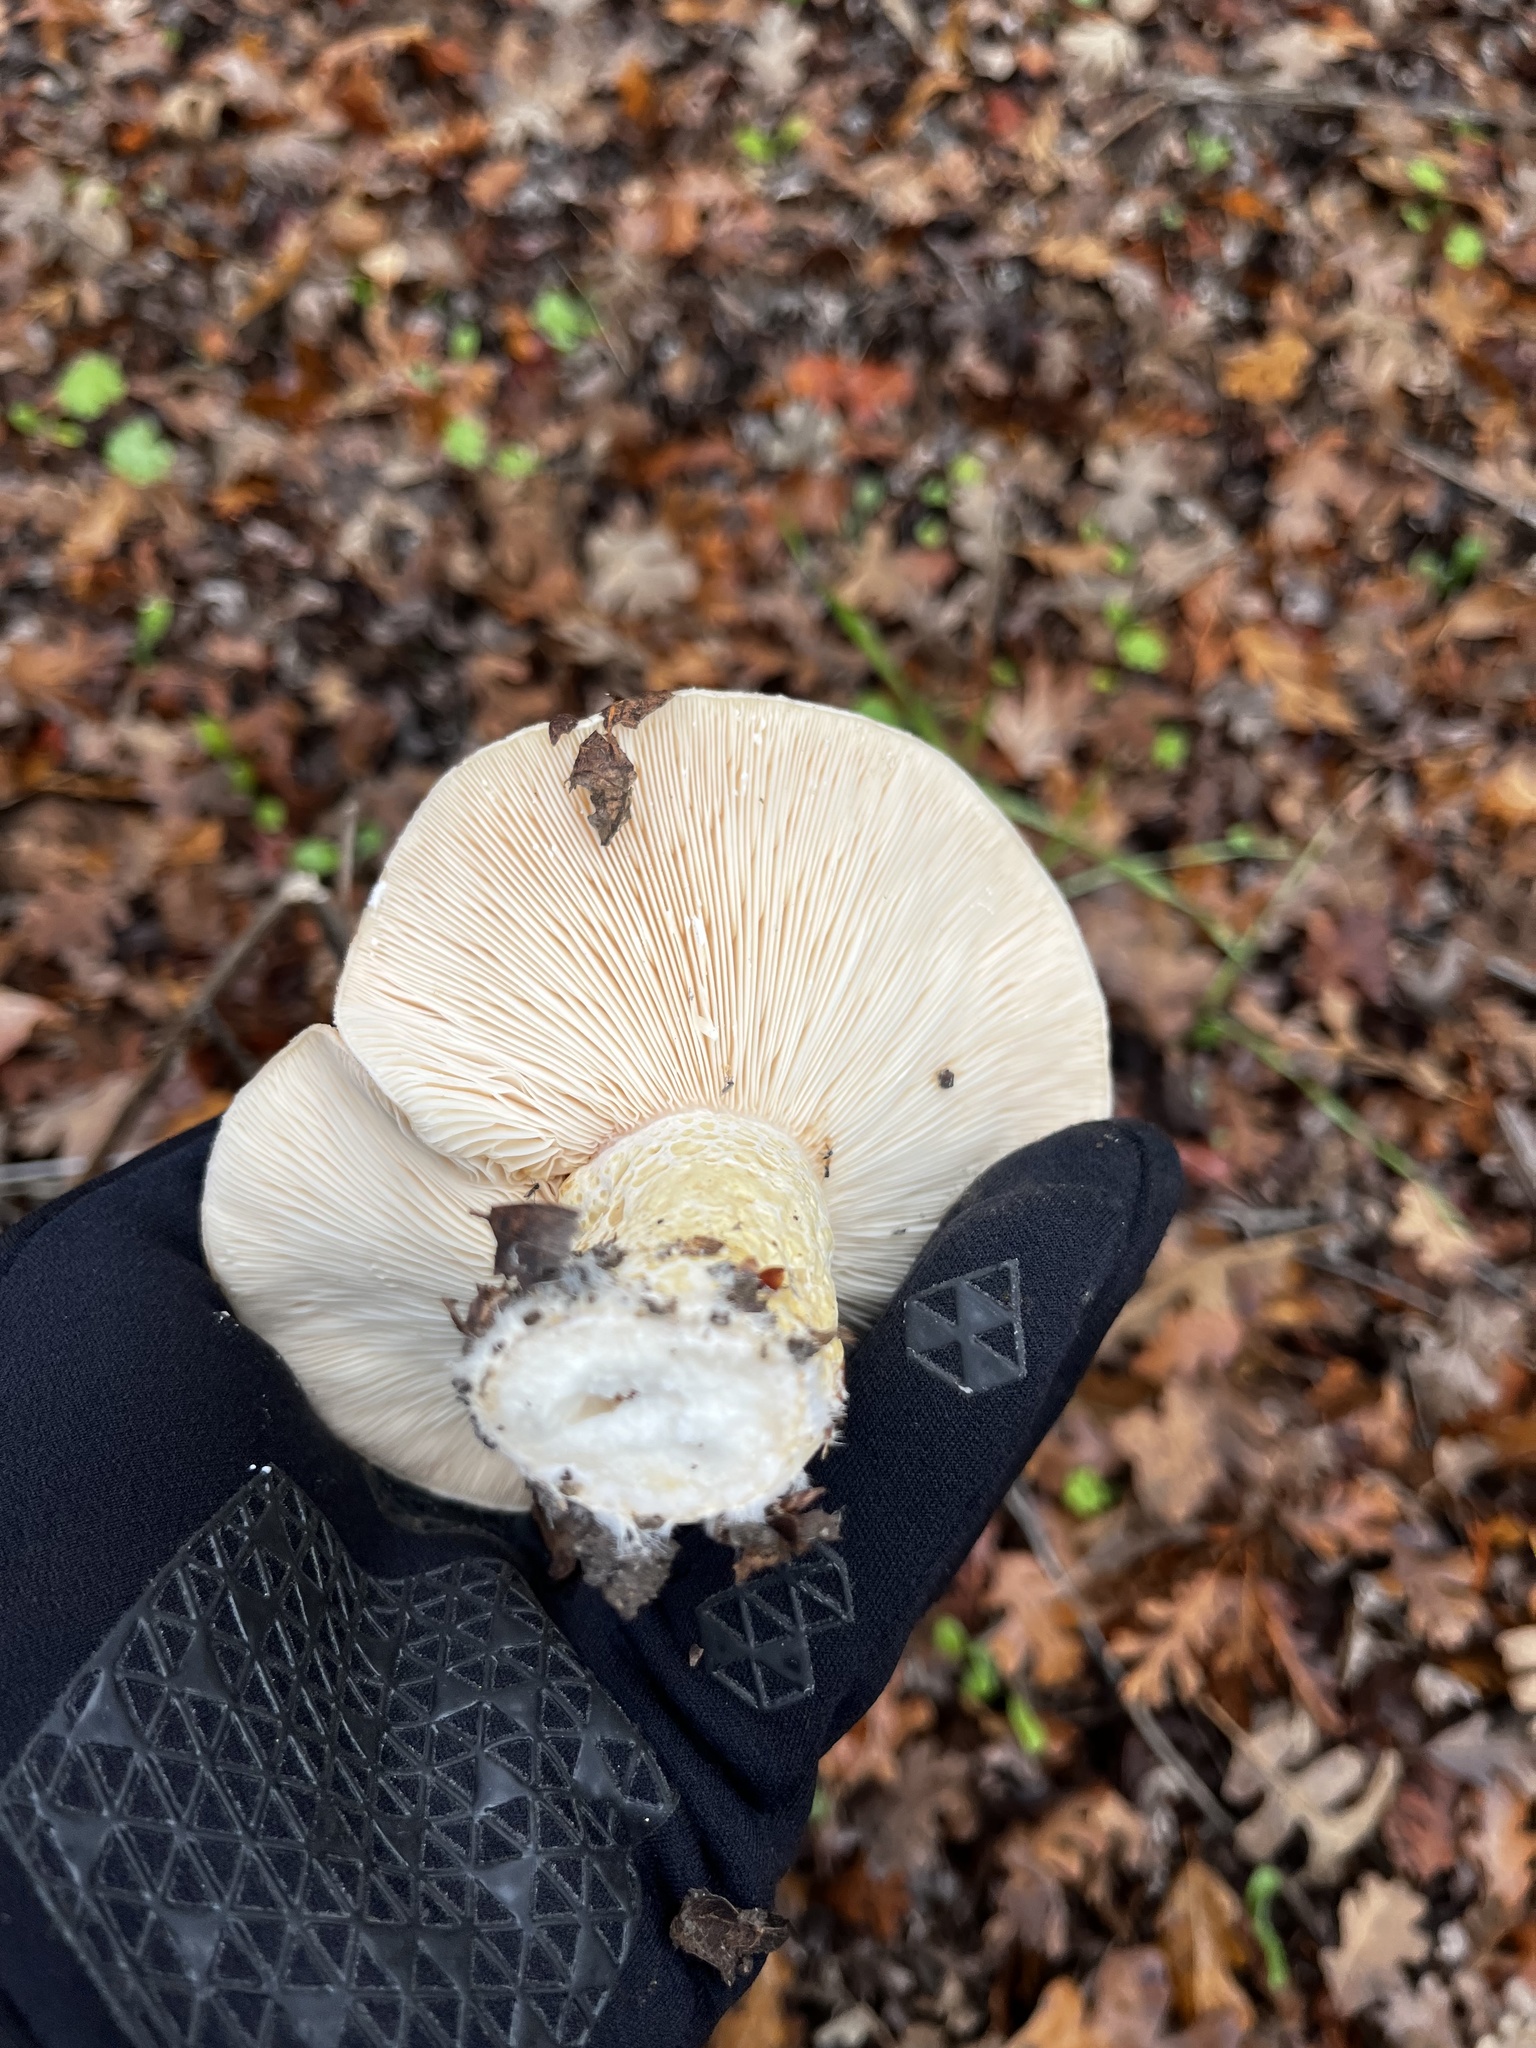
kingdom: Fungi
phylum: Basidiomycota
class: Agaricomycetes
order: Russulales
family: Russulaceae
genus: Lactarius
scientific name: Lactarius alnicola
